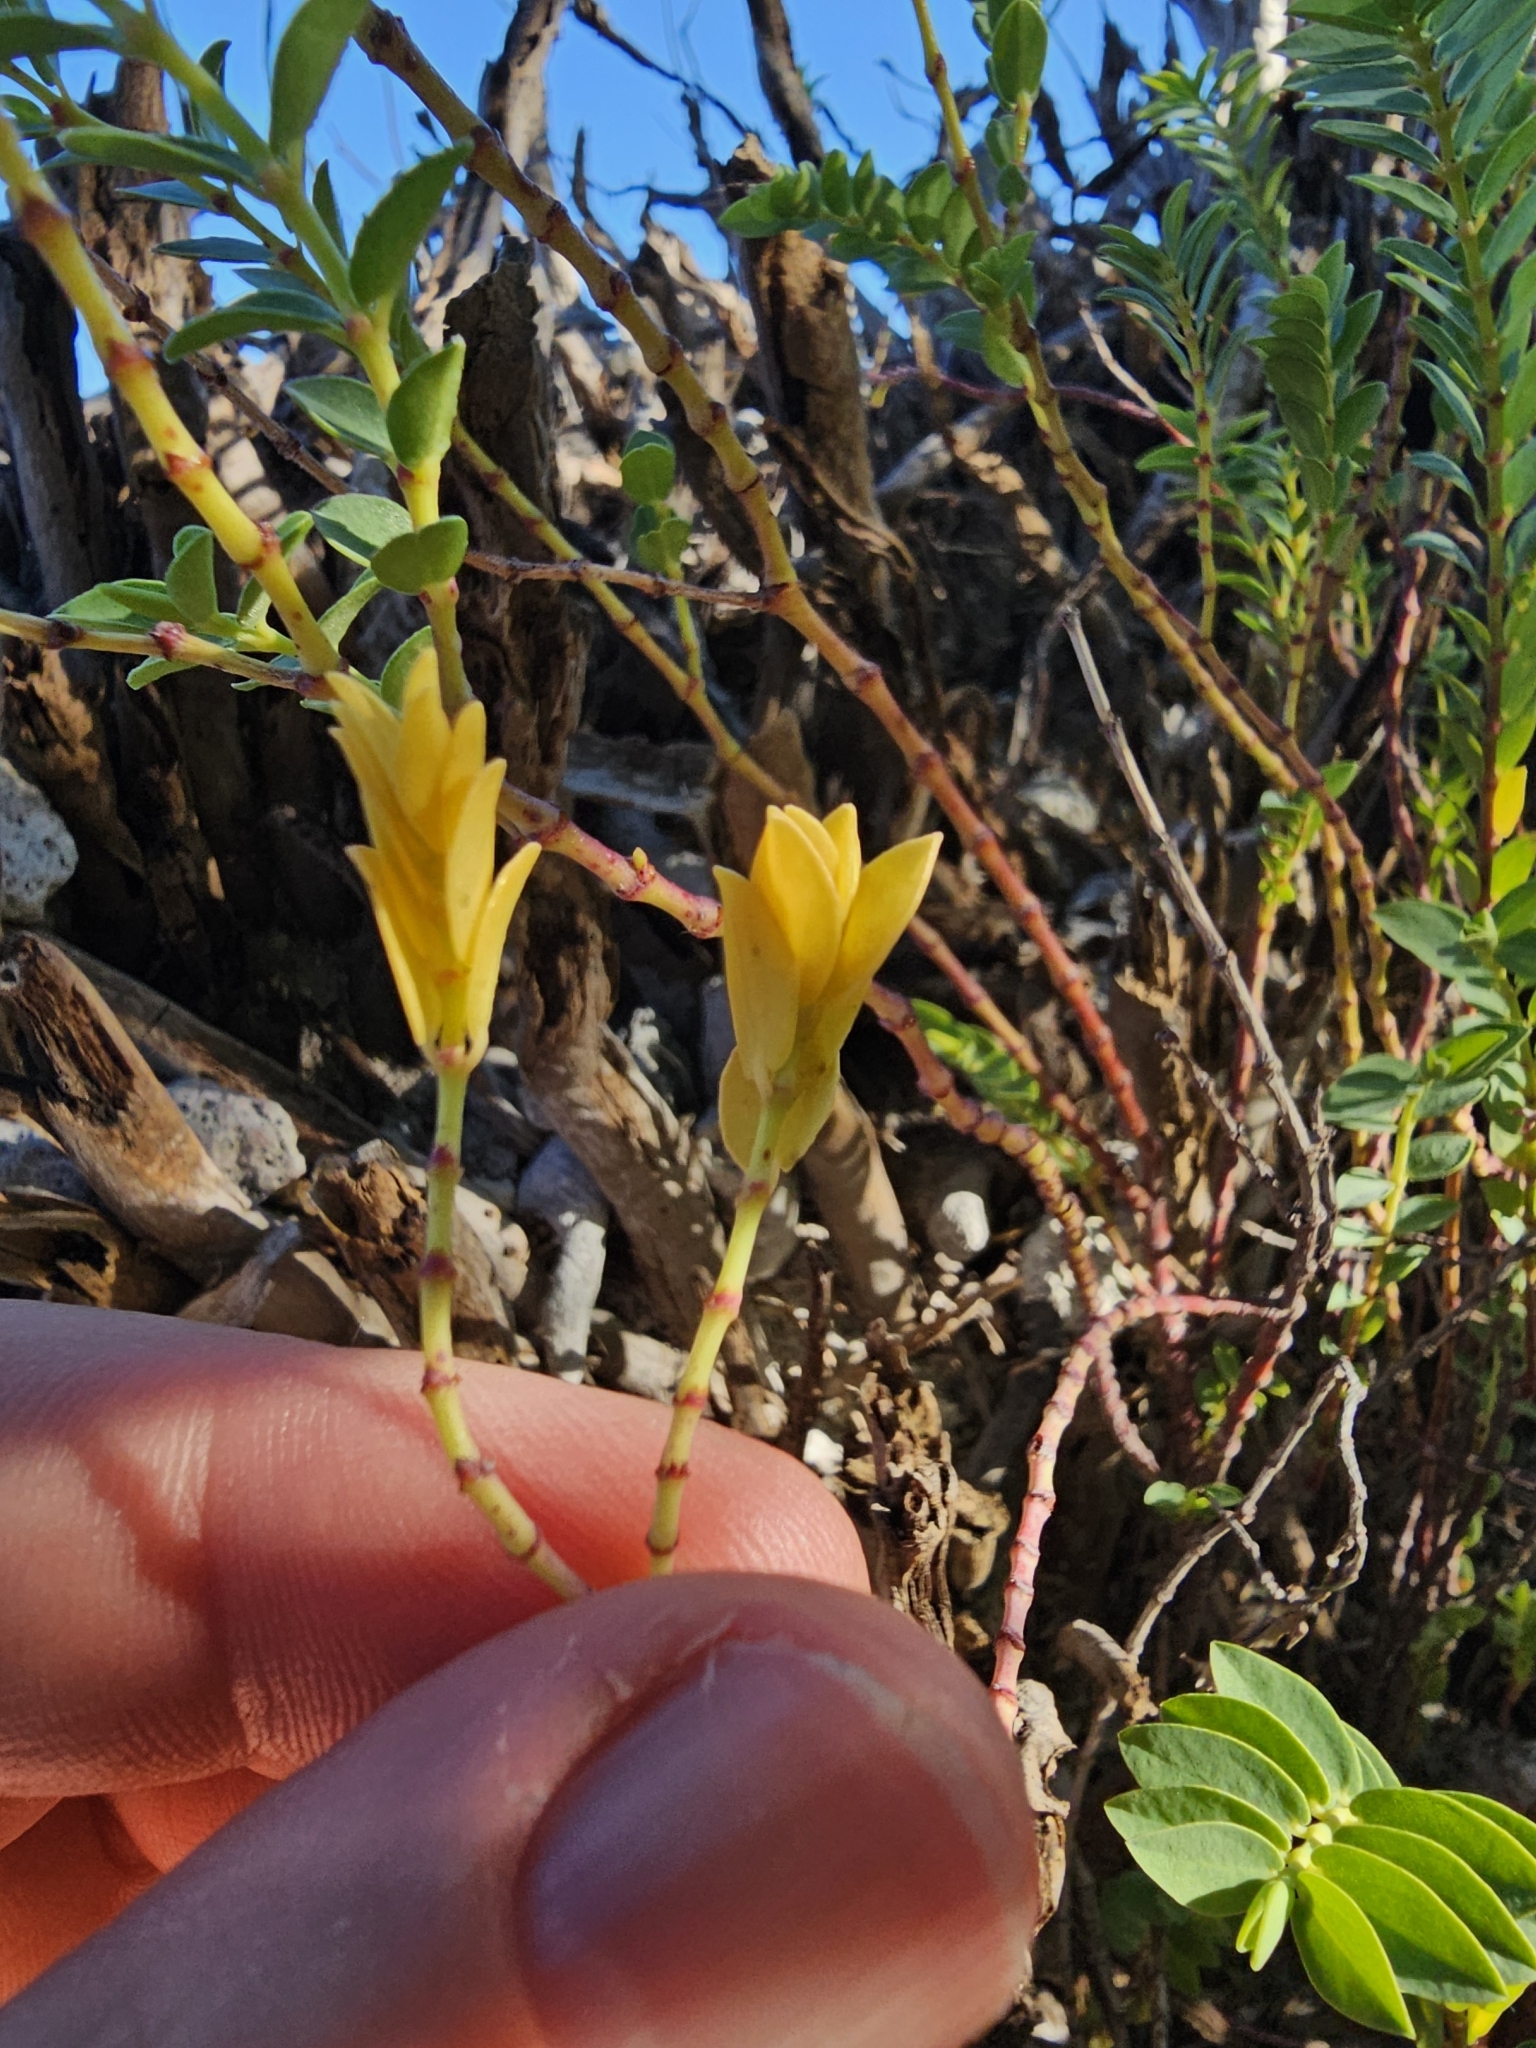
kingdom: Plantae
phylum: Tracheophyta
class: Magnoliopsida
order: Malpighiales
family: Euphorbiaceae
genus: Euphorbia
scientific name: Euphorbia mesembryanthemifolia
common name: Coastal beach sandmat
